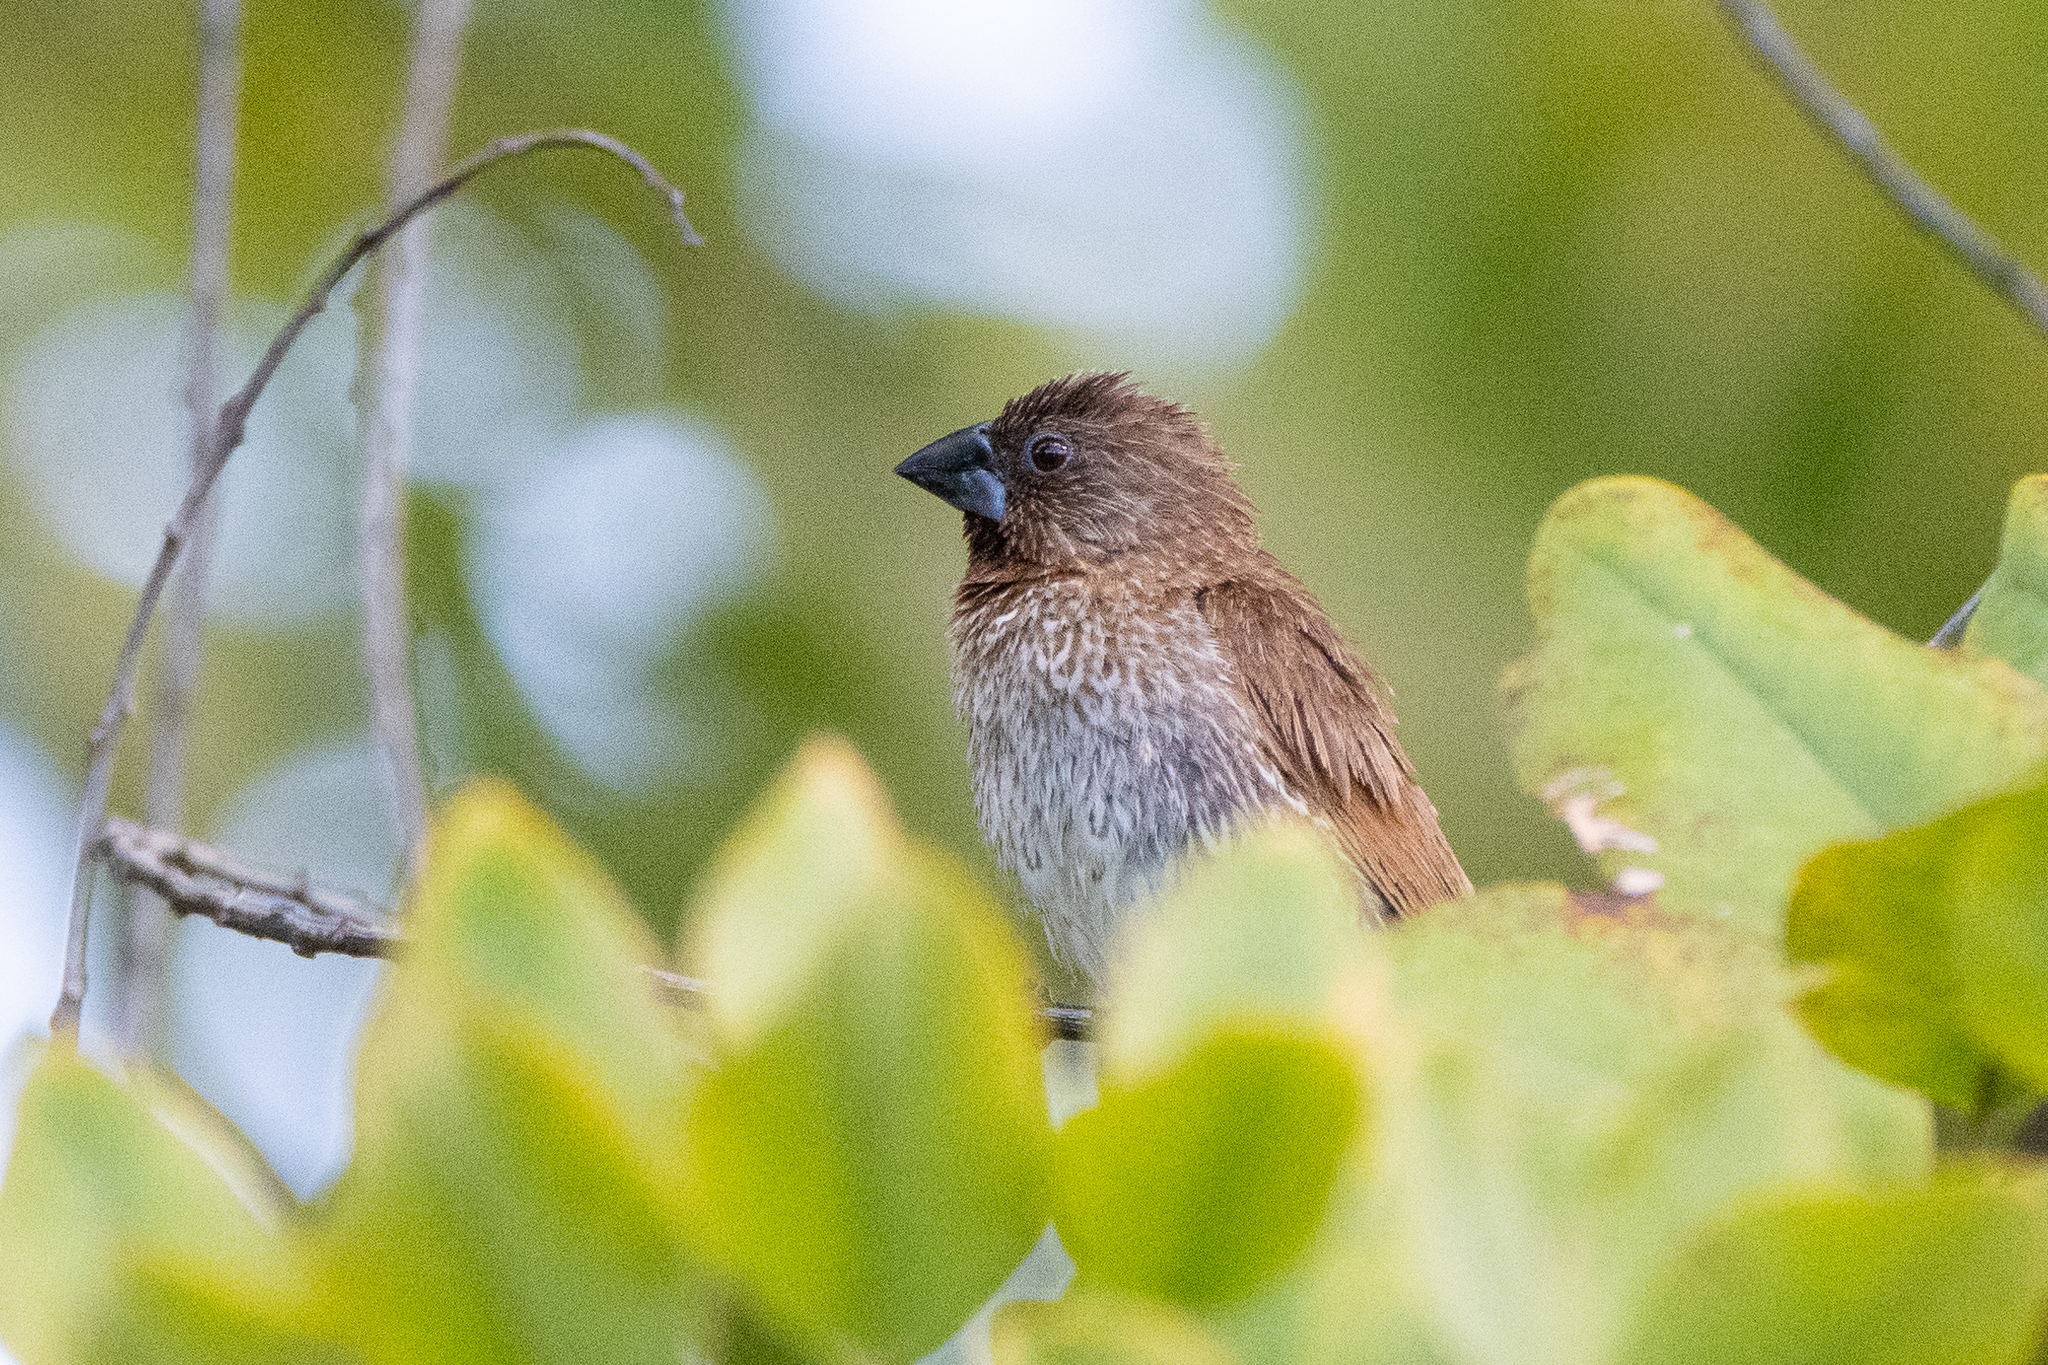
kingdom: Animalia
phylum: Chordata
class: Aves
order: Passeriformes
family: Estrildidae
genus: Lonchura
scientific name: Lonchura punctulata
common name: Scaly-breasted munia
